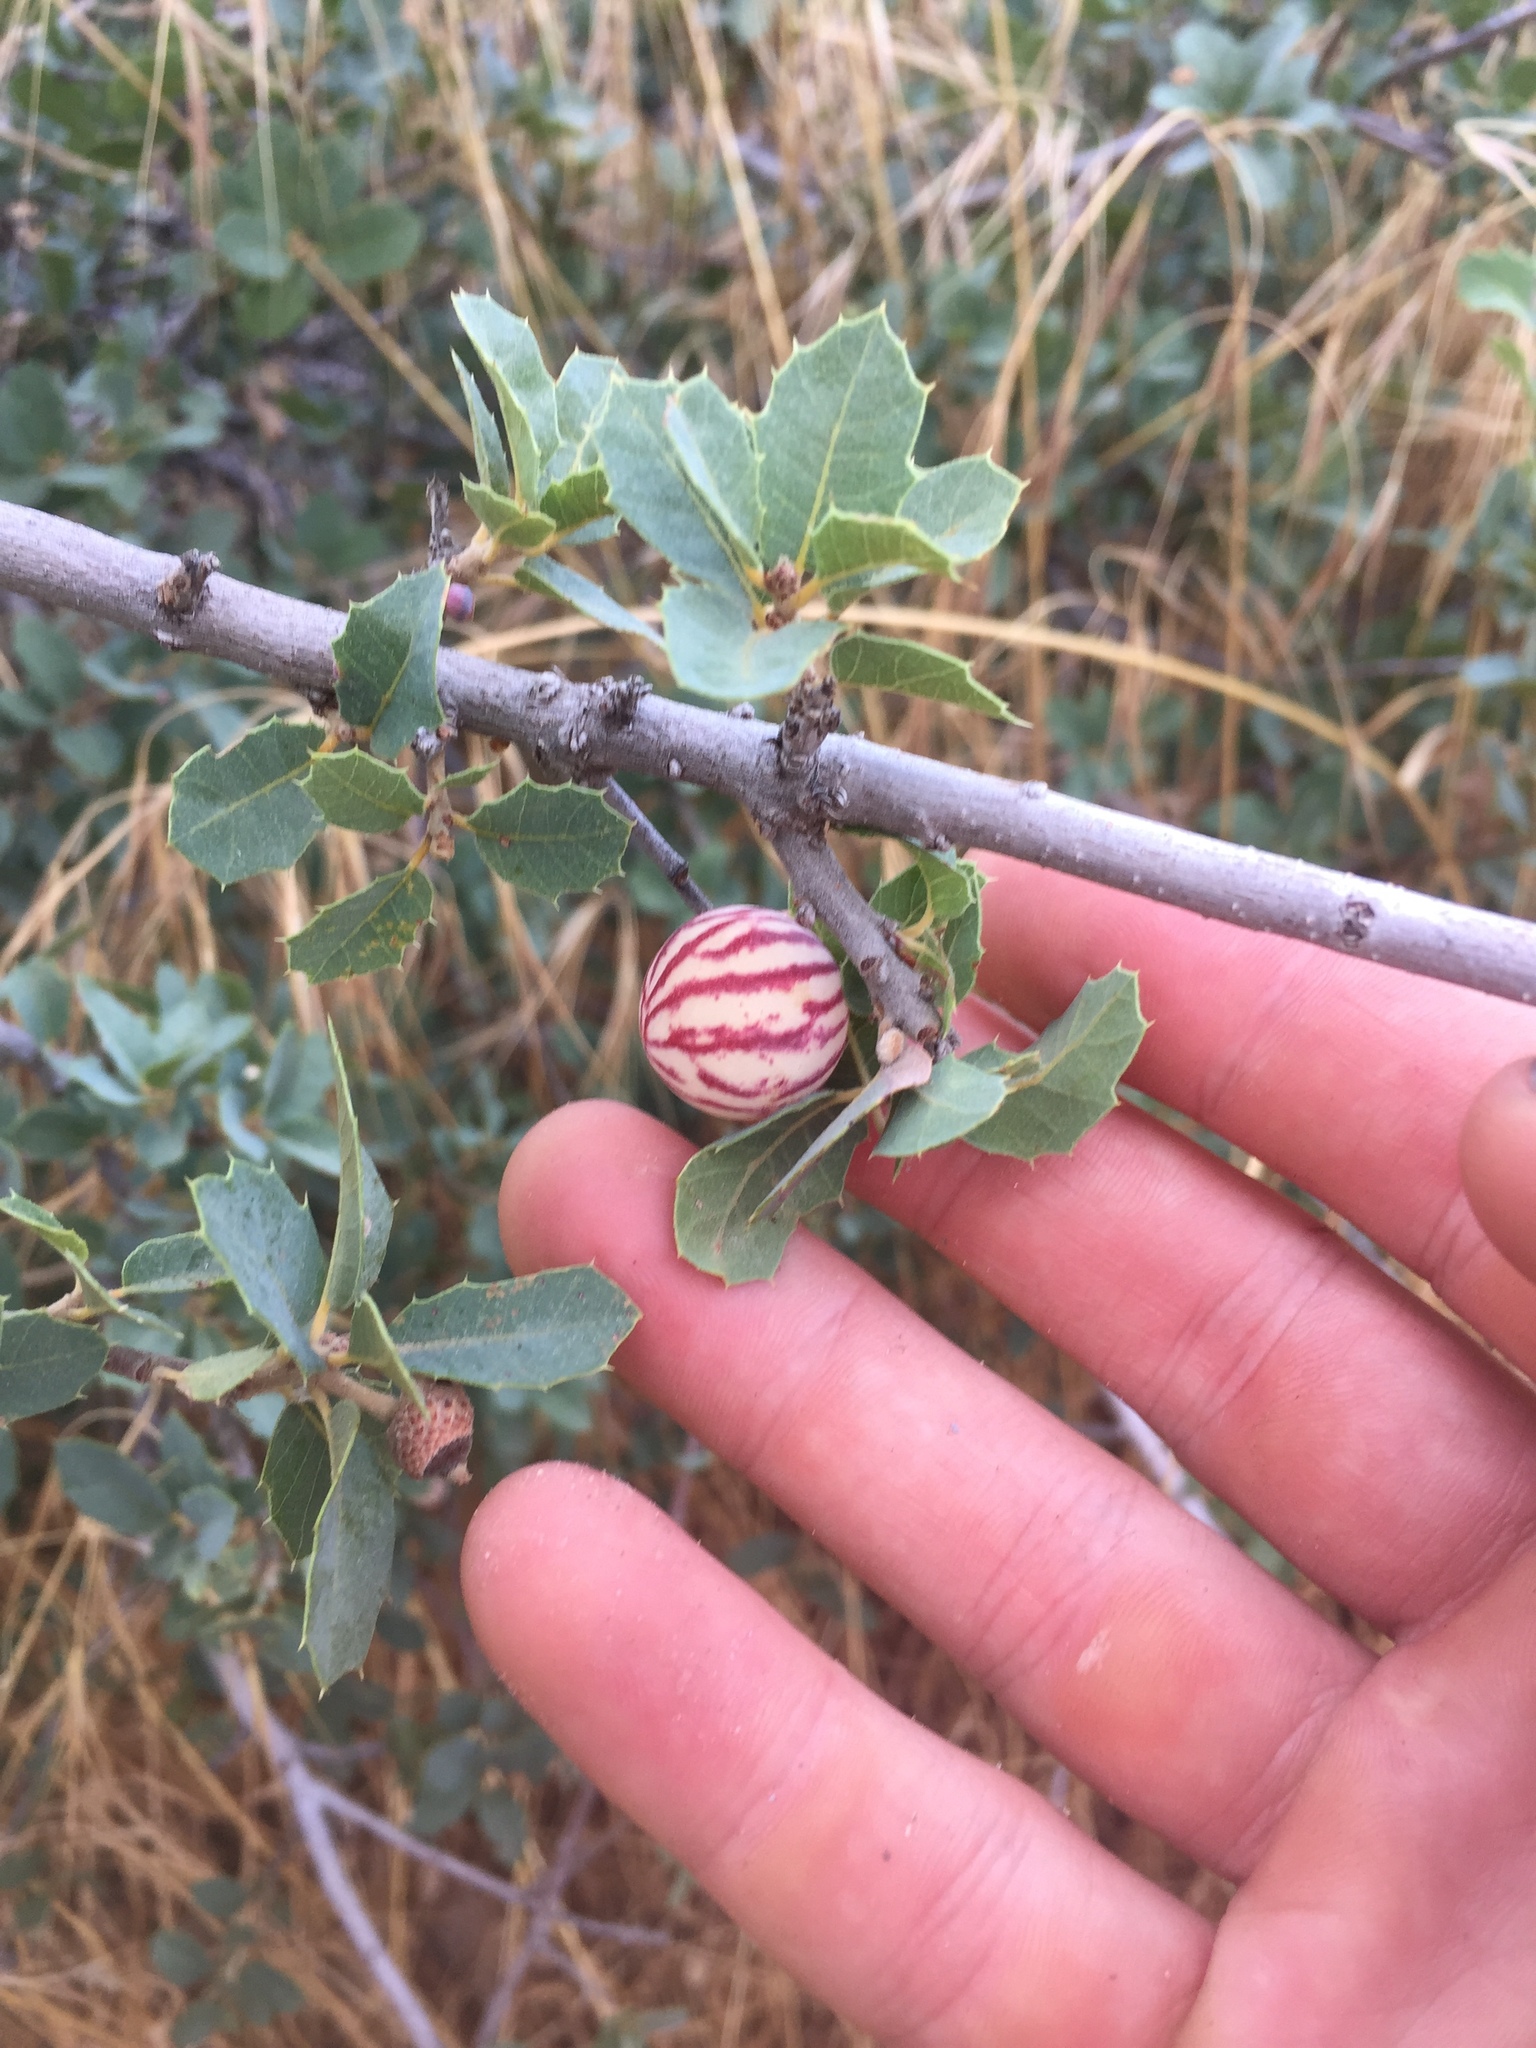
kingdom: Animalia
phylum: Arthropoda
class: Insecta
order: Hymenoptera
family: Cynipidae
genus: Atrusca
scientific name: Atrusca
